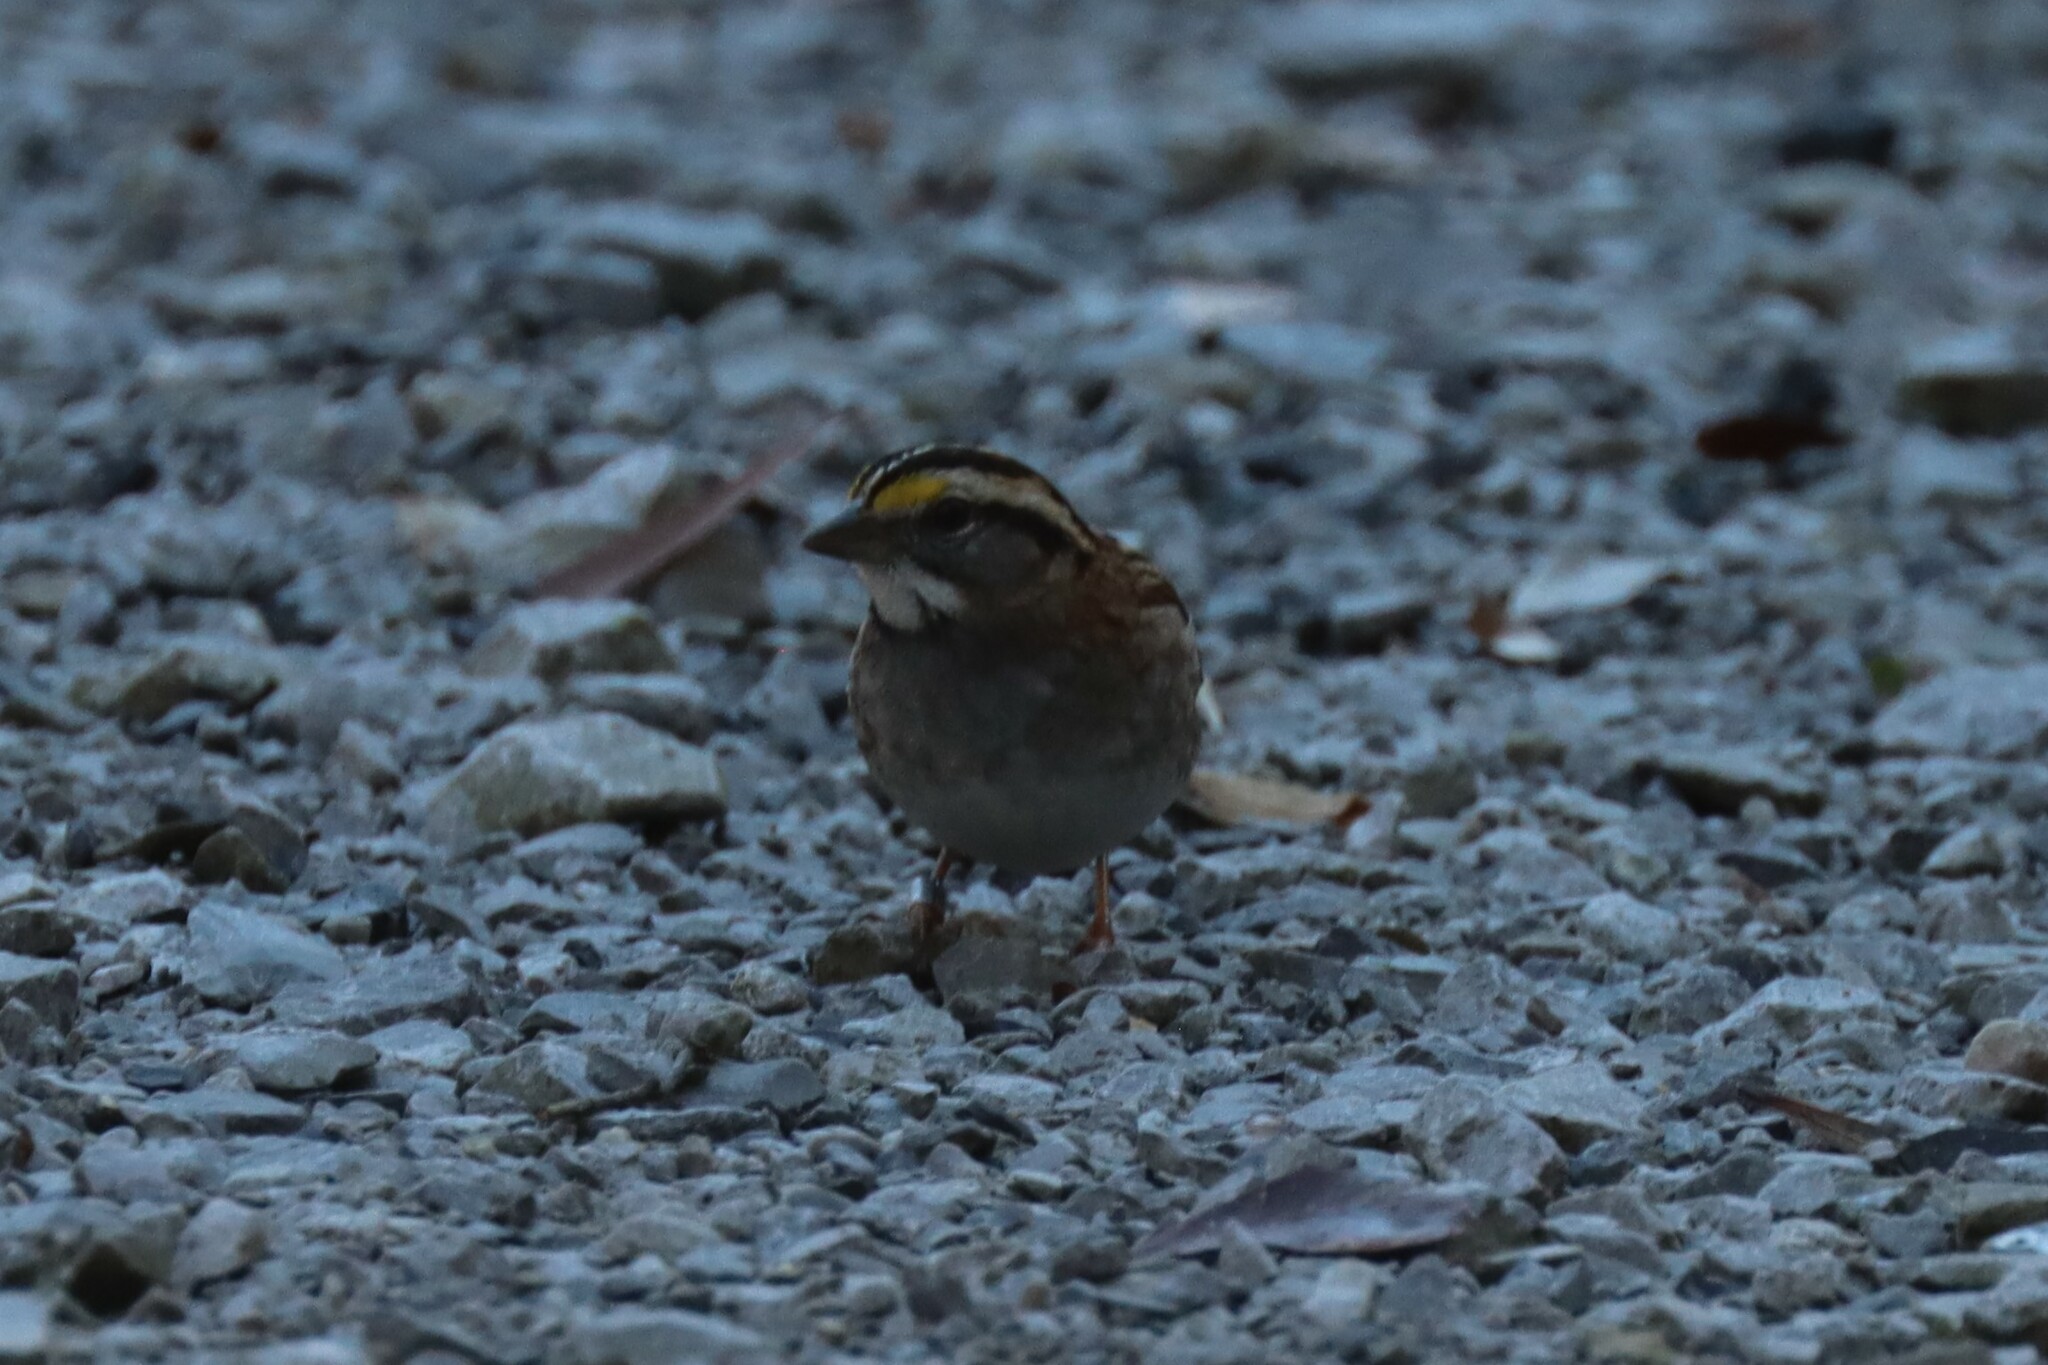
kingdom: Animalia
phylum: Chordata
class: Aves
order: Passeriformes
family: Passerellidae
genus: Zonotrichia
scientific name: Zonotrichia albicollis
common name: White-throated sparrow
